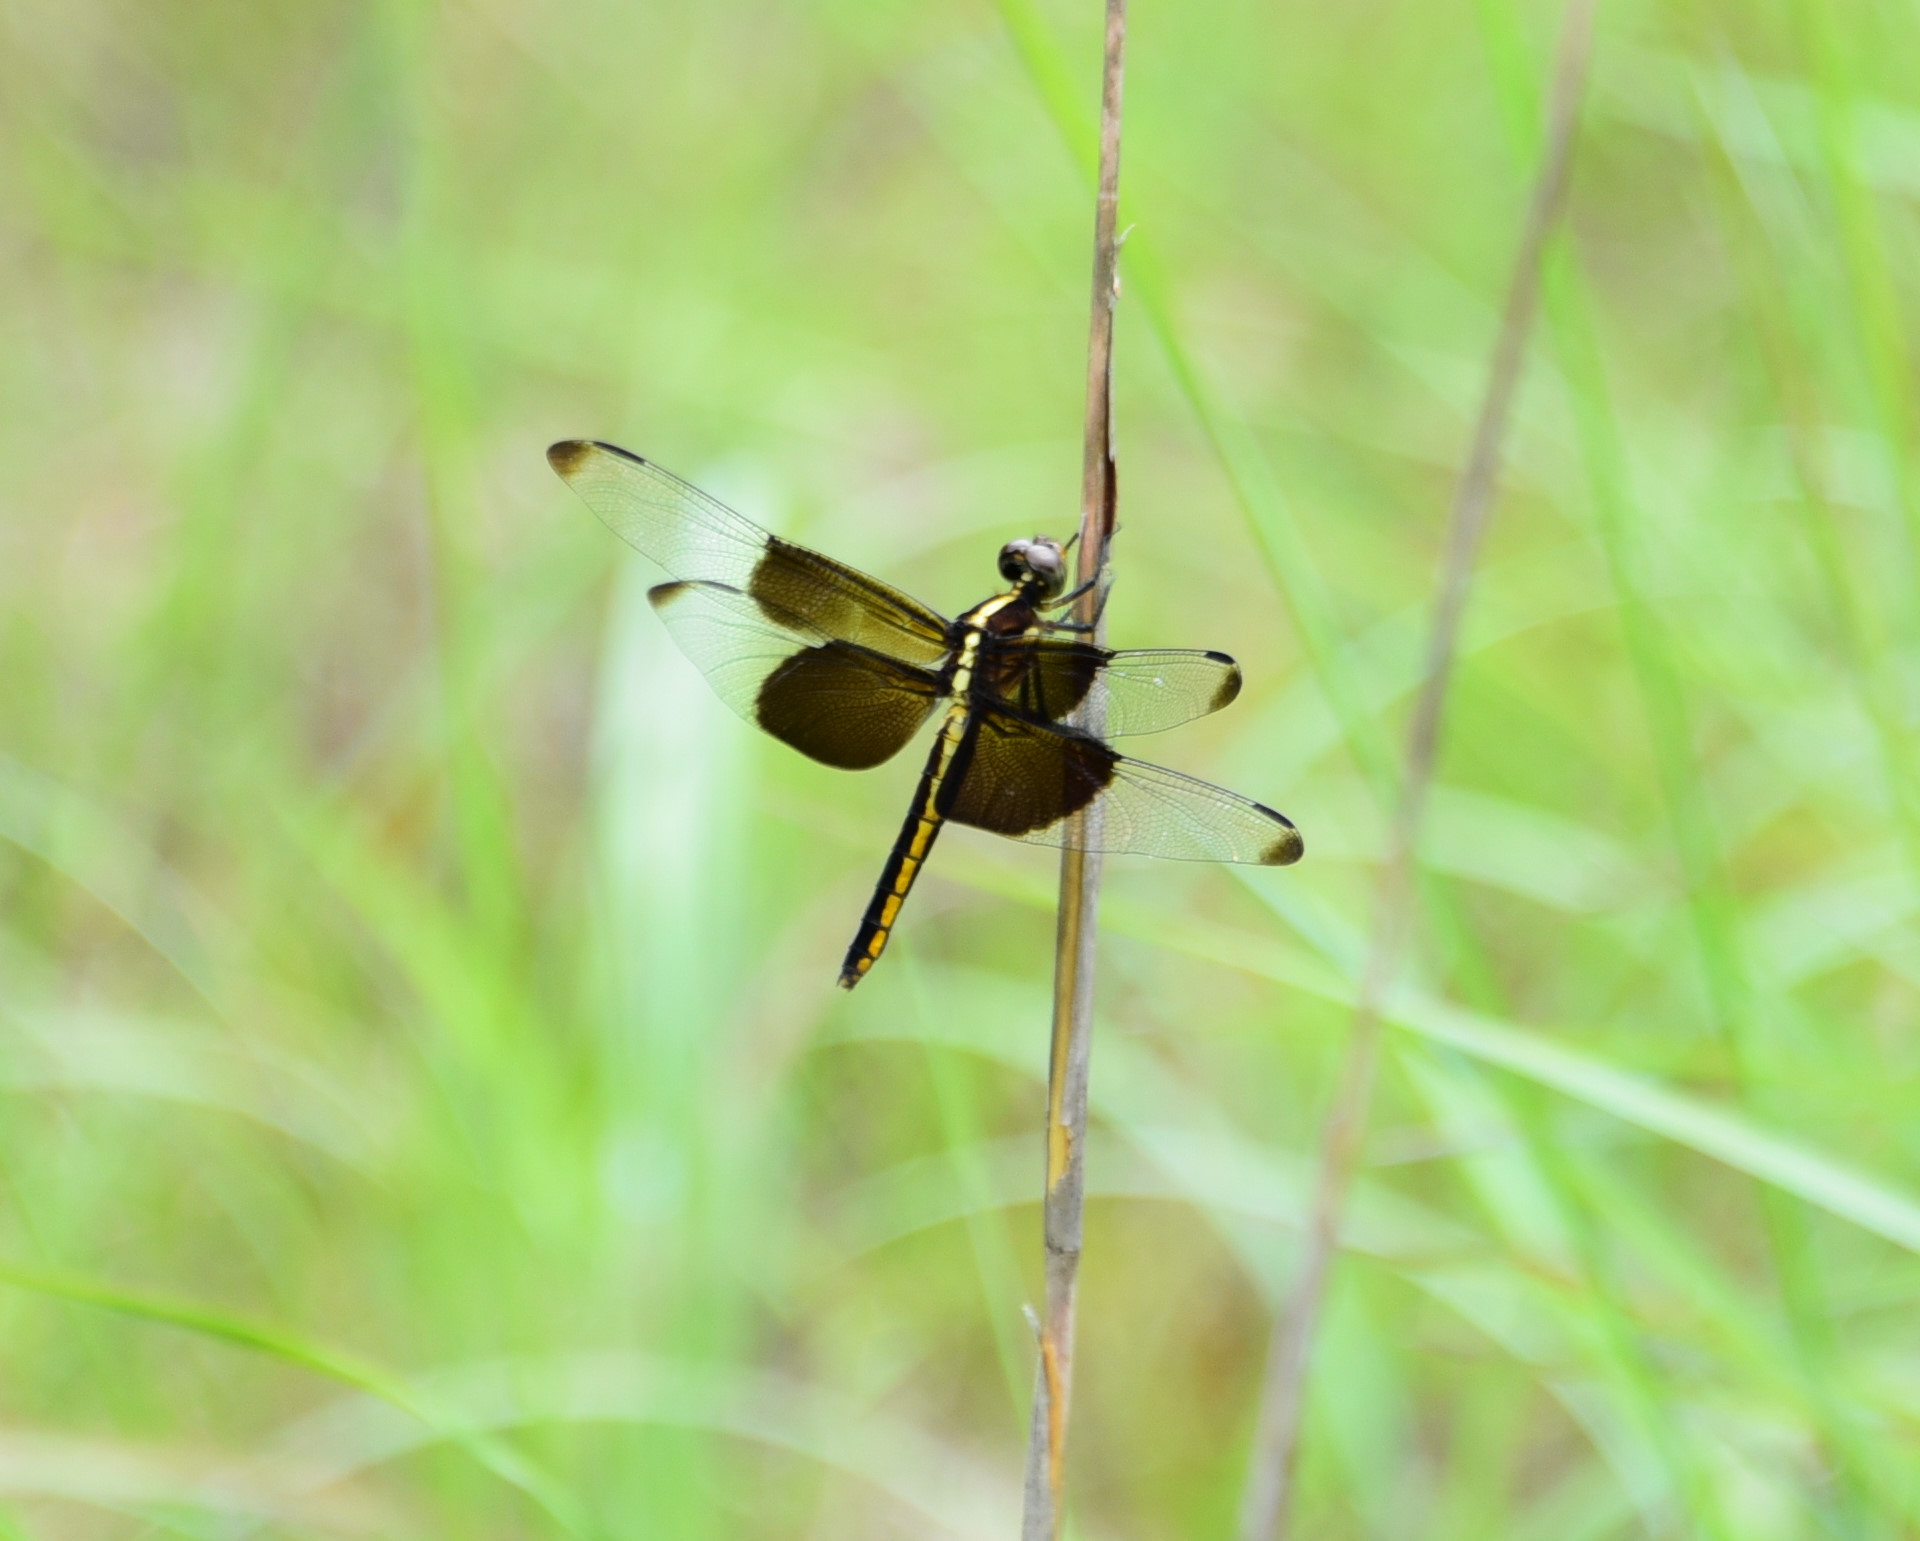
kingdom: Animalia
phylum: Arthropoda
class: Insecta
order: Odonata
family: Libellulidae
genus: Libellula
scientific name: Libellula luctuosa
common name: Widow skimmer
